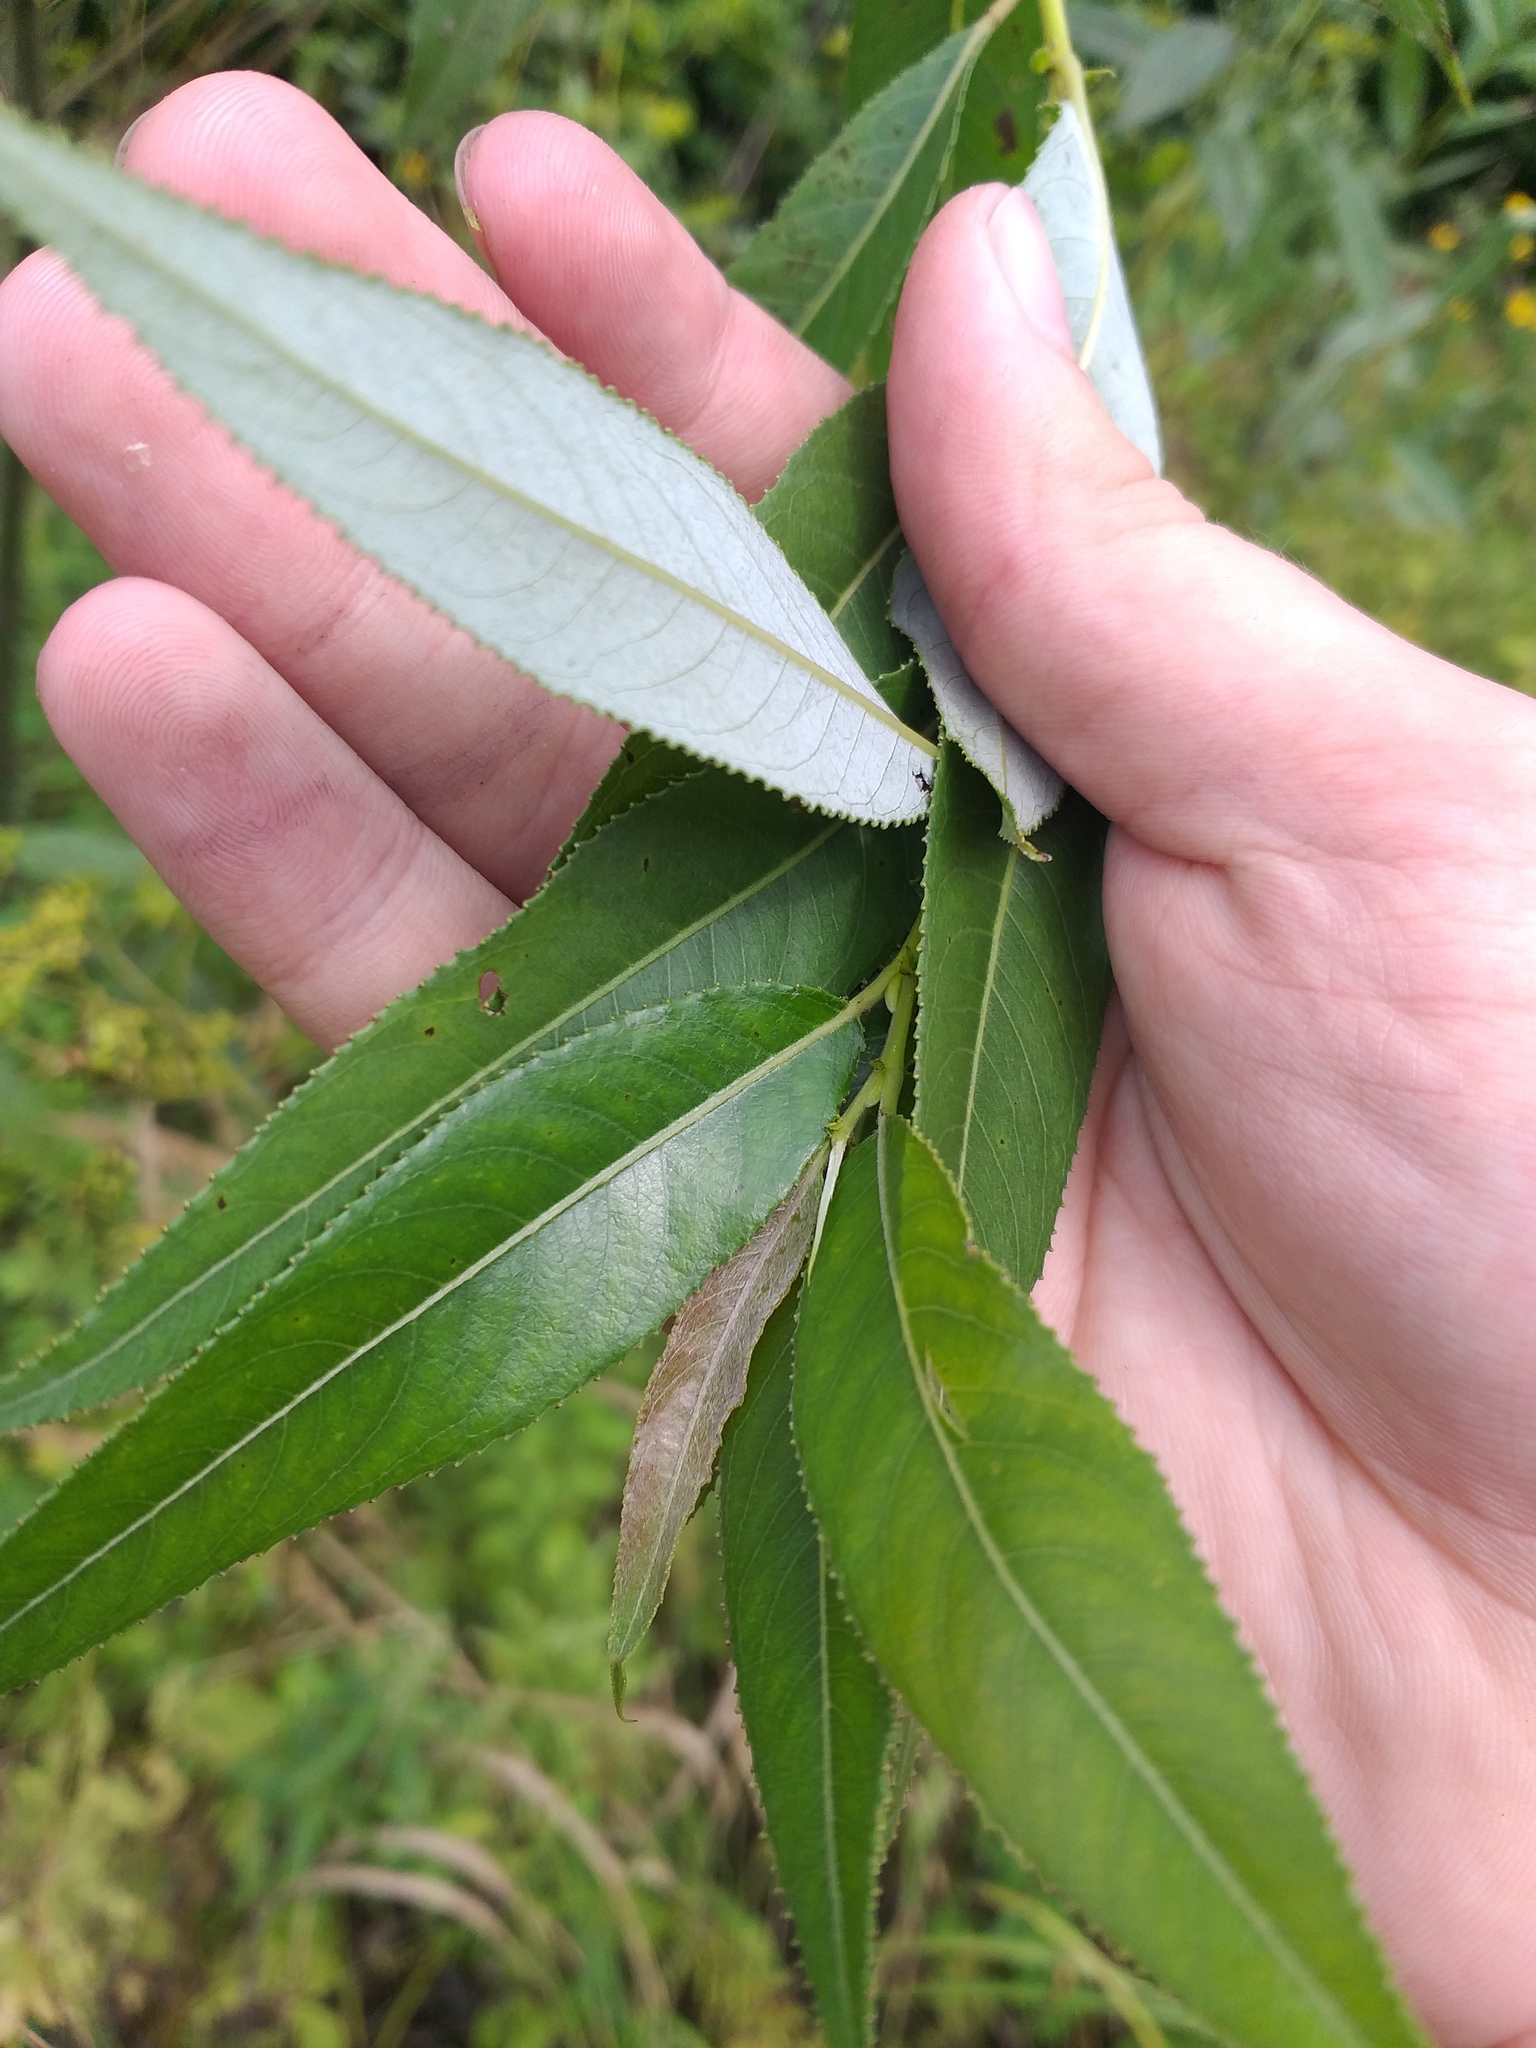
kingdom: Plantae
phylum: Tracheophyta
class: Magnoliopsida
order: Malpighiales
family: Salicaceae
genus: Salix
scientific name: Salix fragilis
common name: Crack willow
